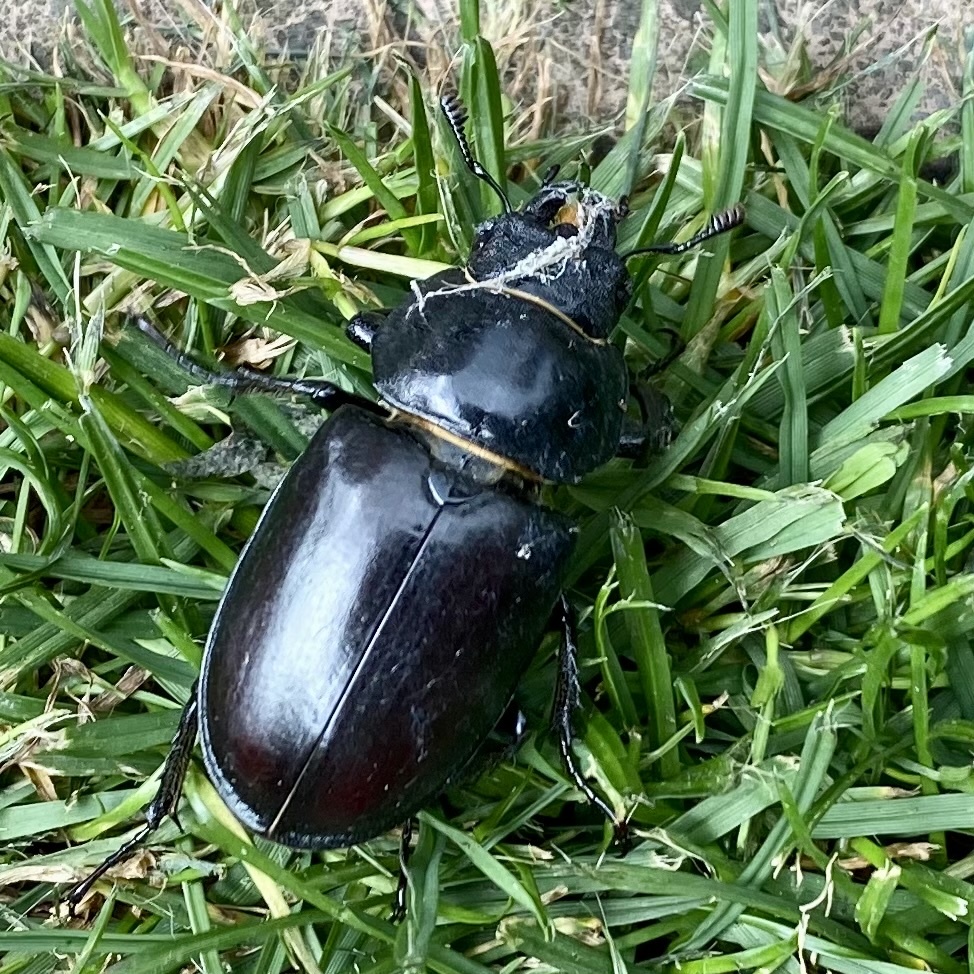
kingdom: Animalia
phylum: Arthropoda
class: Insecta
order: Coleoptera
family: Lucanidae
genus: Lucanus
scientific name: Lucanus cervus
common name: Stag beetle
